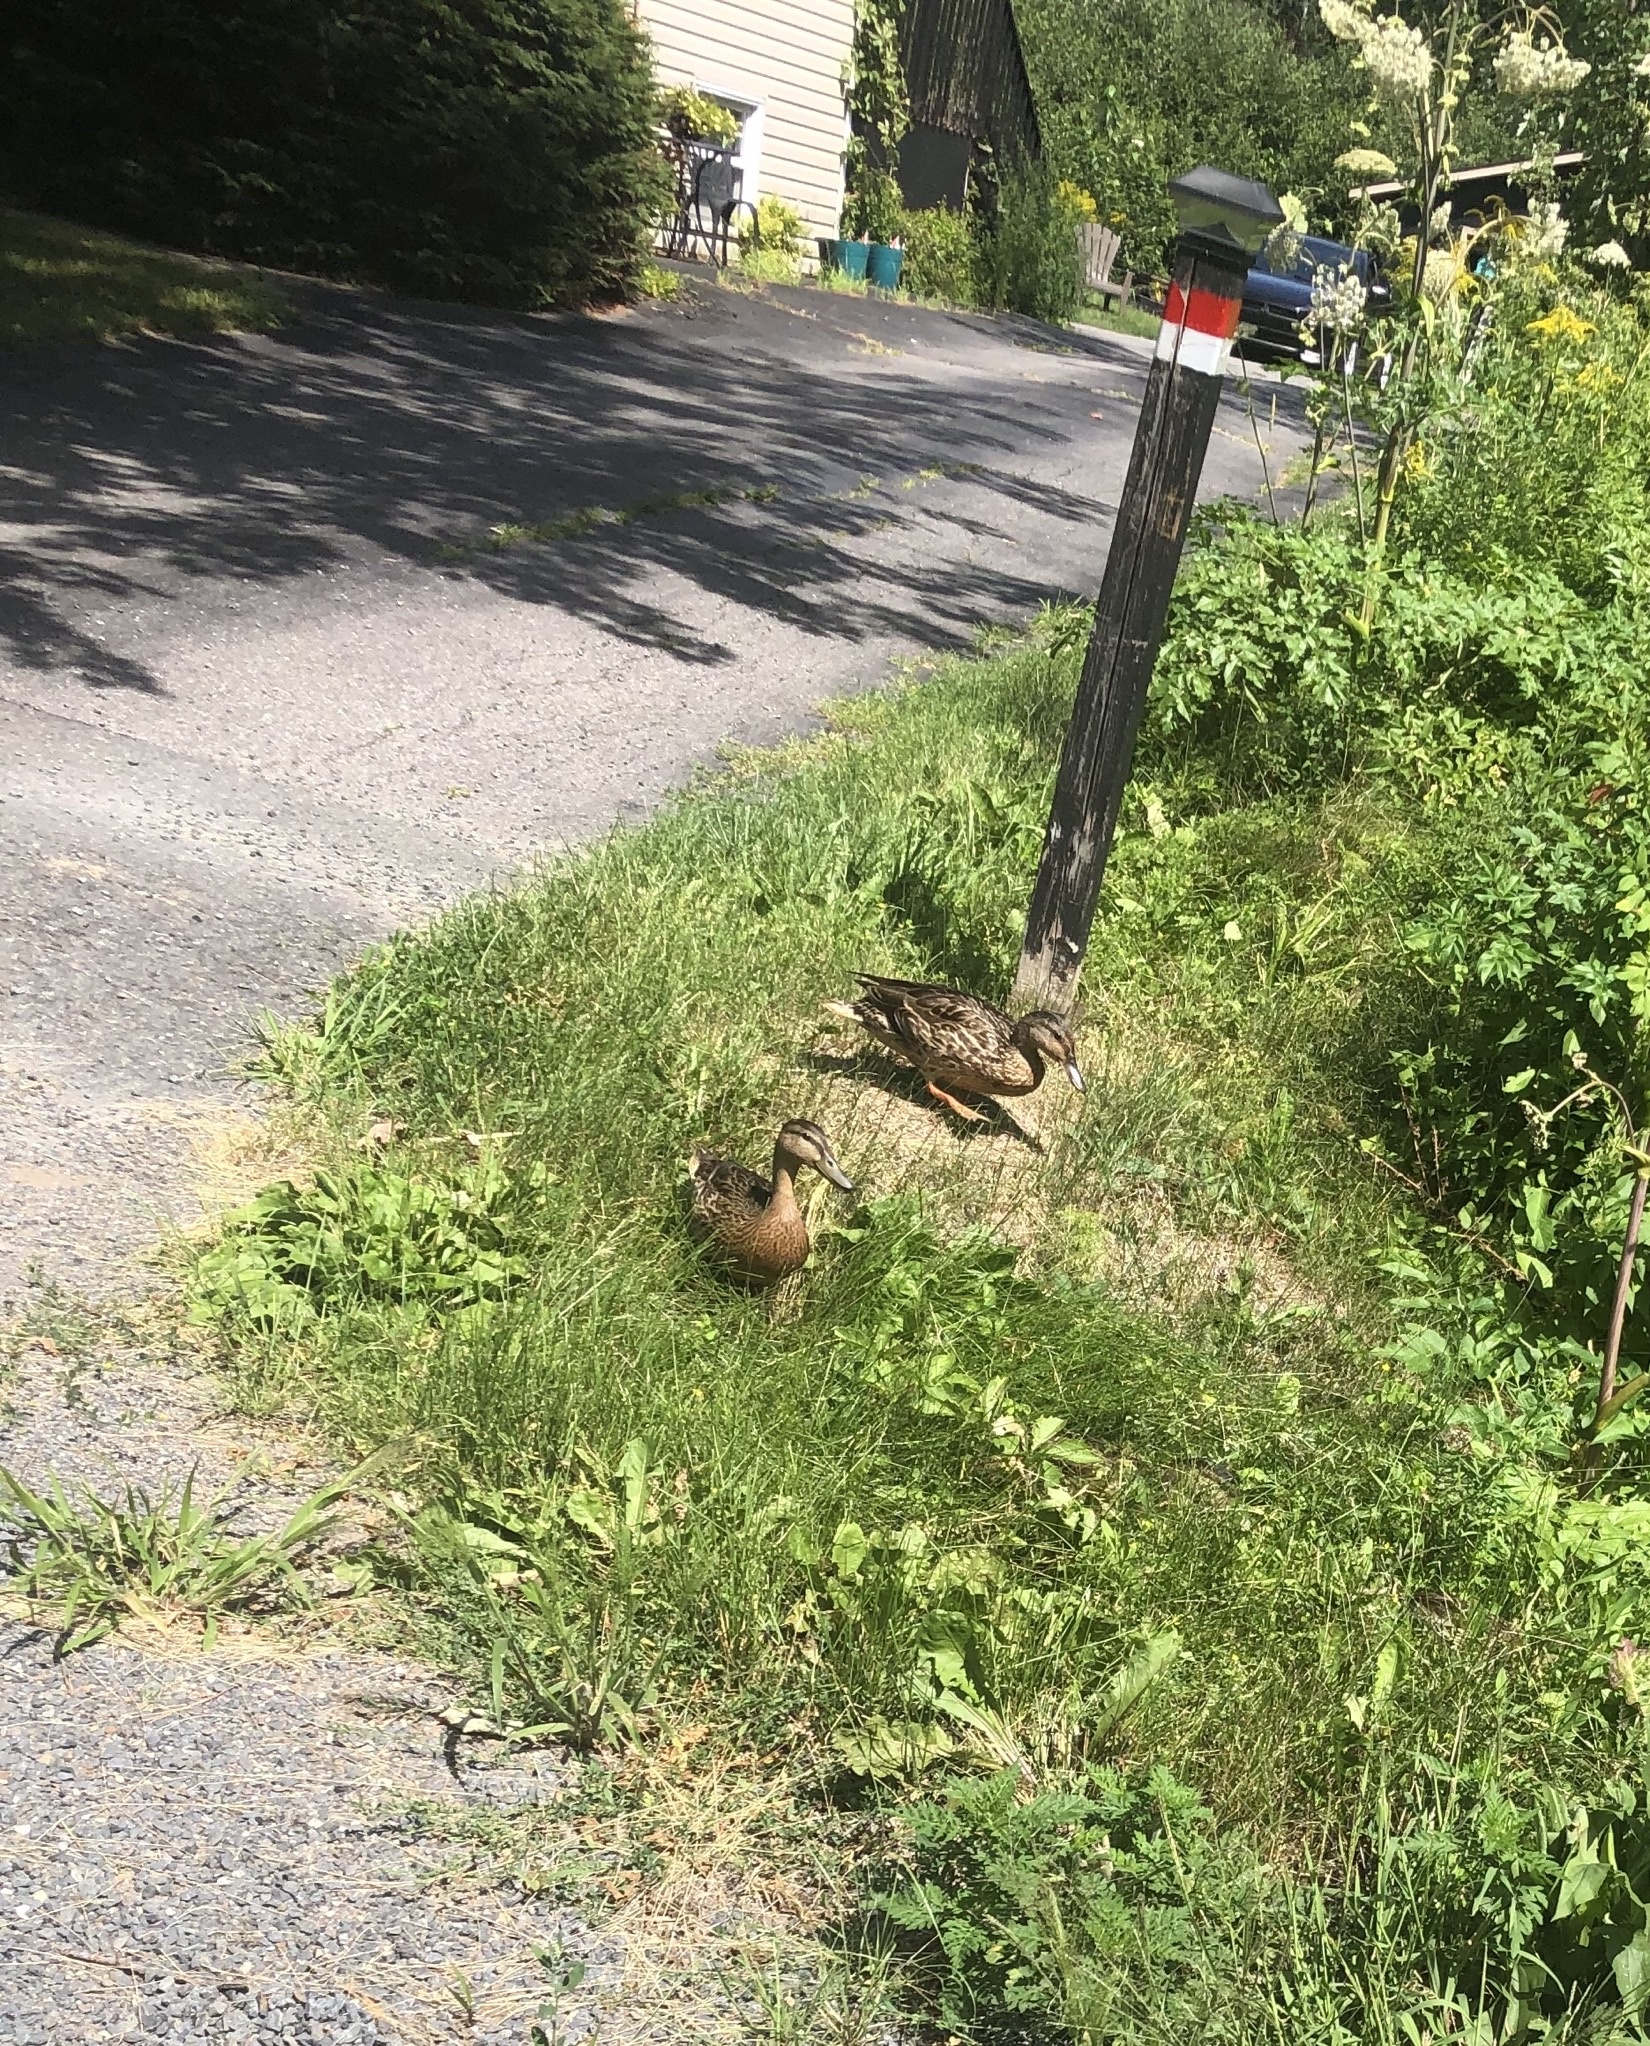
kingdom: Animalia
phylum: Chordata
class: Aves
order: Anseriformes
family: Anatidae
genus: Anas
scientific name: Anas platyrhynchos
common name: Mallard
